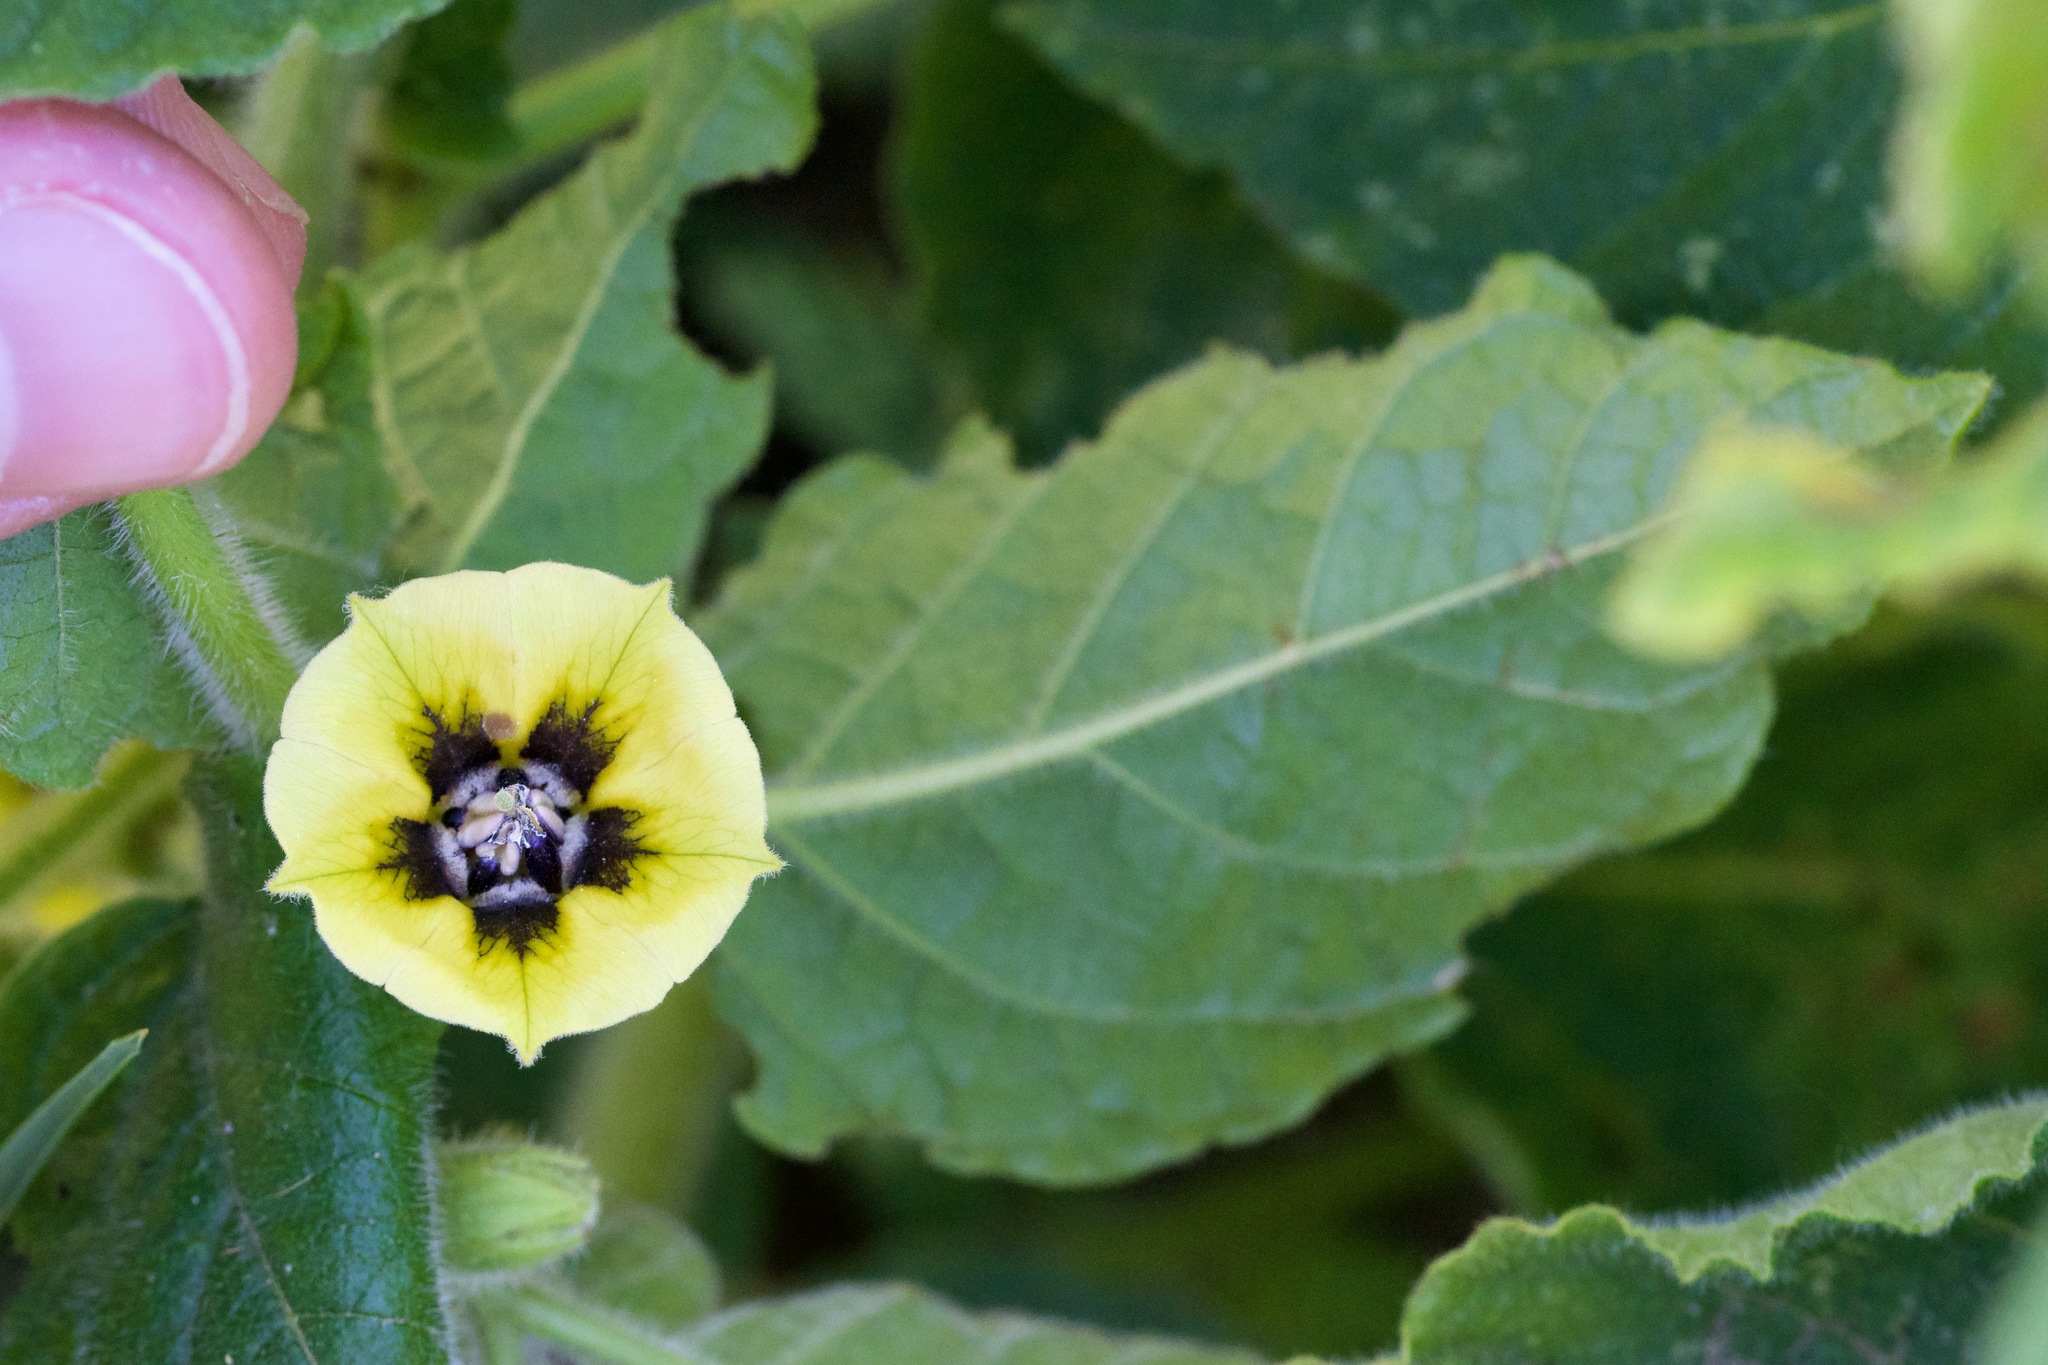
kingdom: Plantae
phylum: Tracheophyta
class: Magnoliopsida
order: Solanales
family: Solanaceae
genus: Physalis
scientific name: Physalis heterophylla
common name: Clammy ground-cherry
